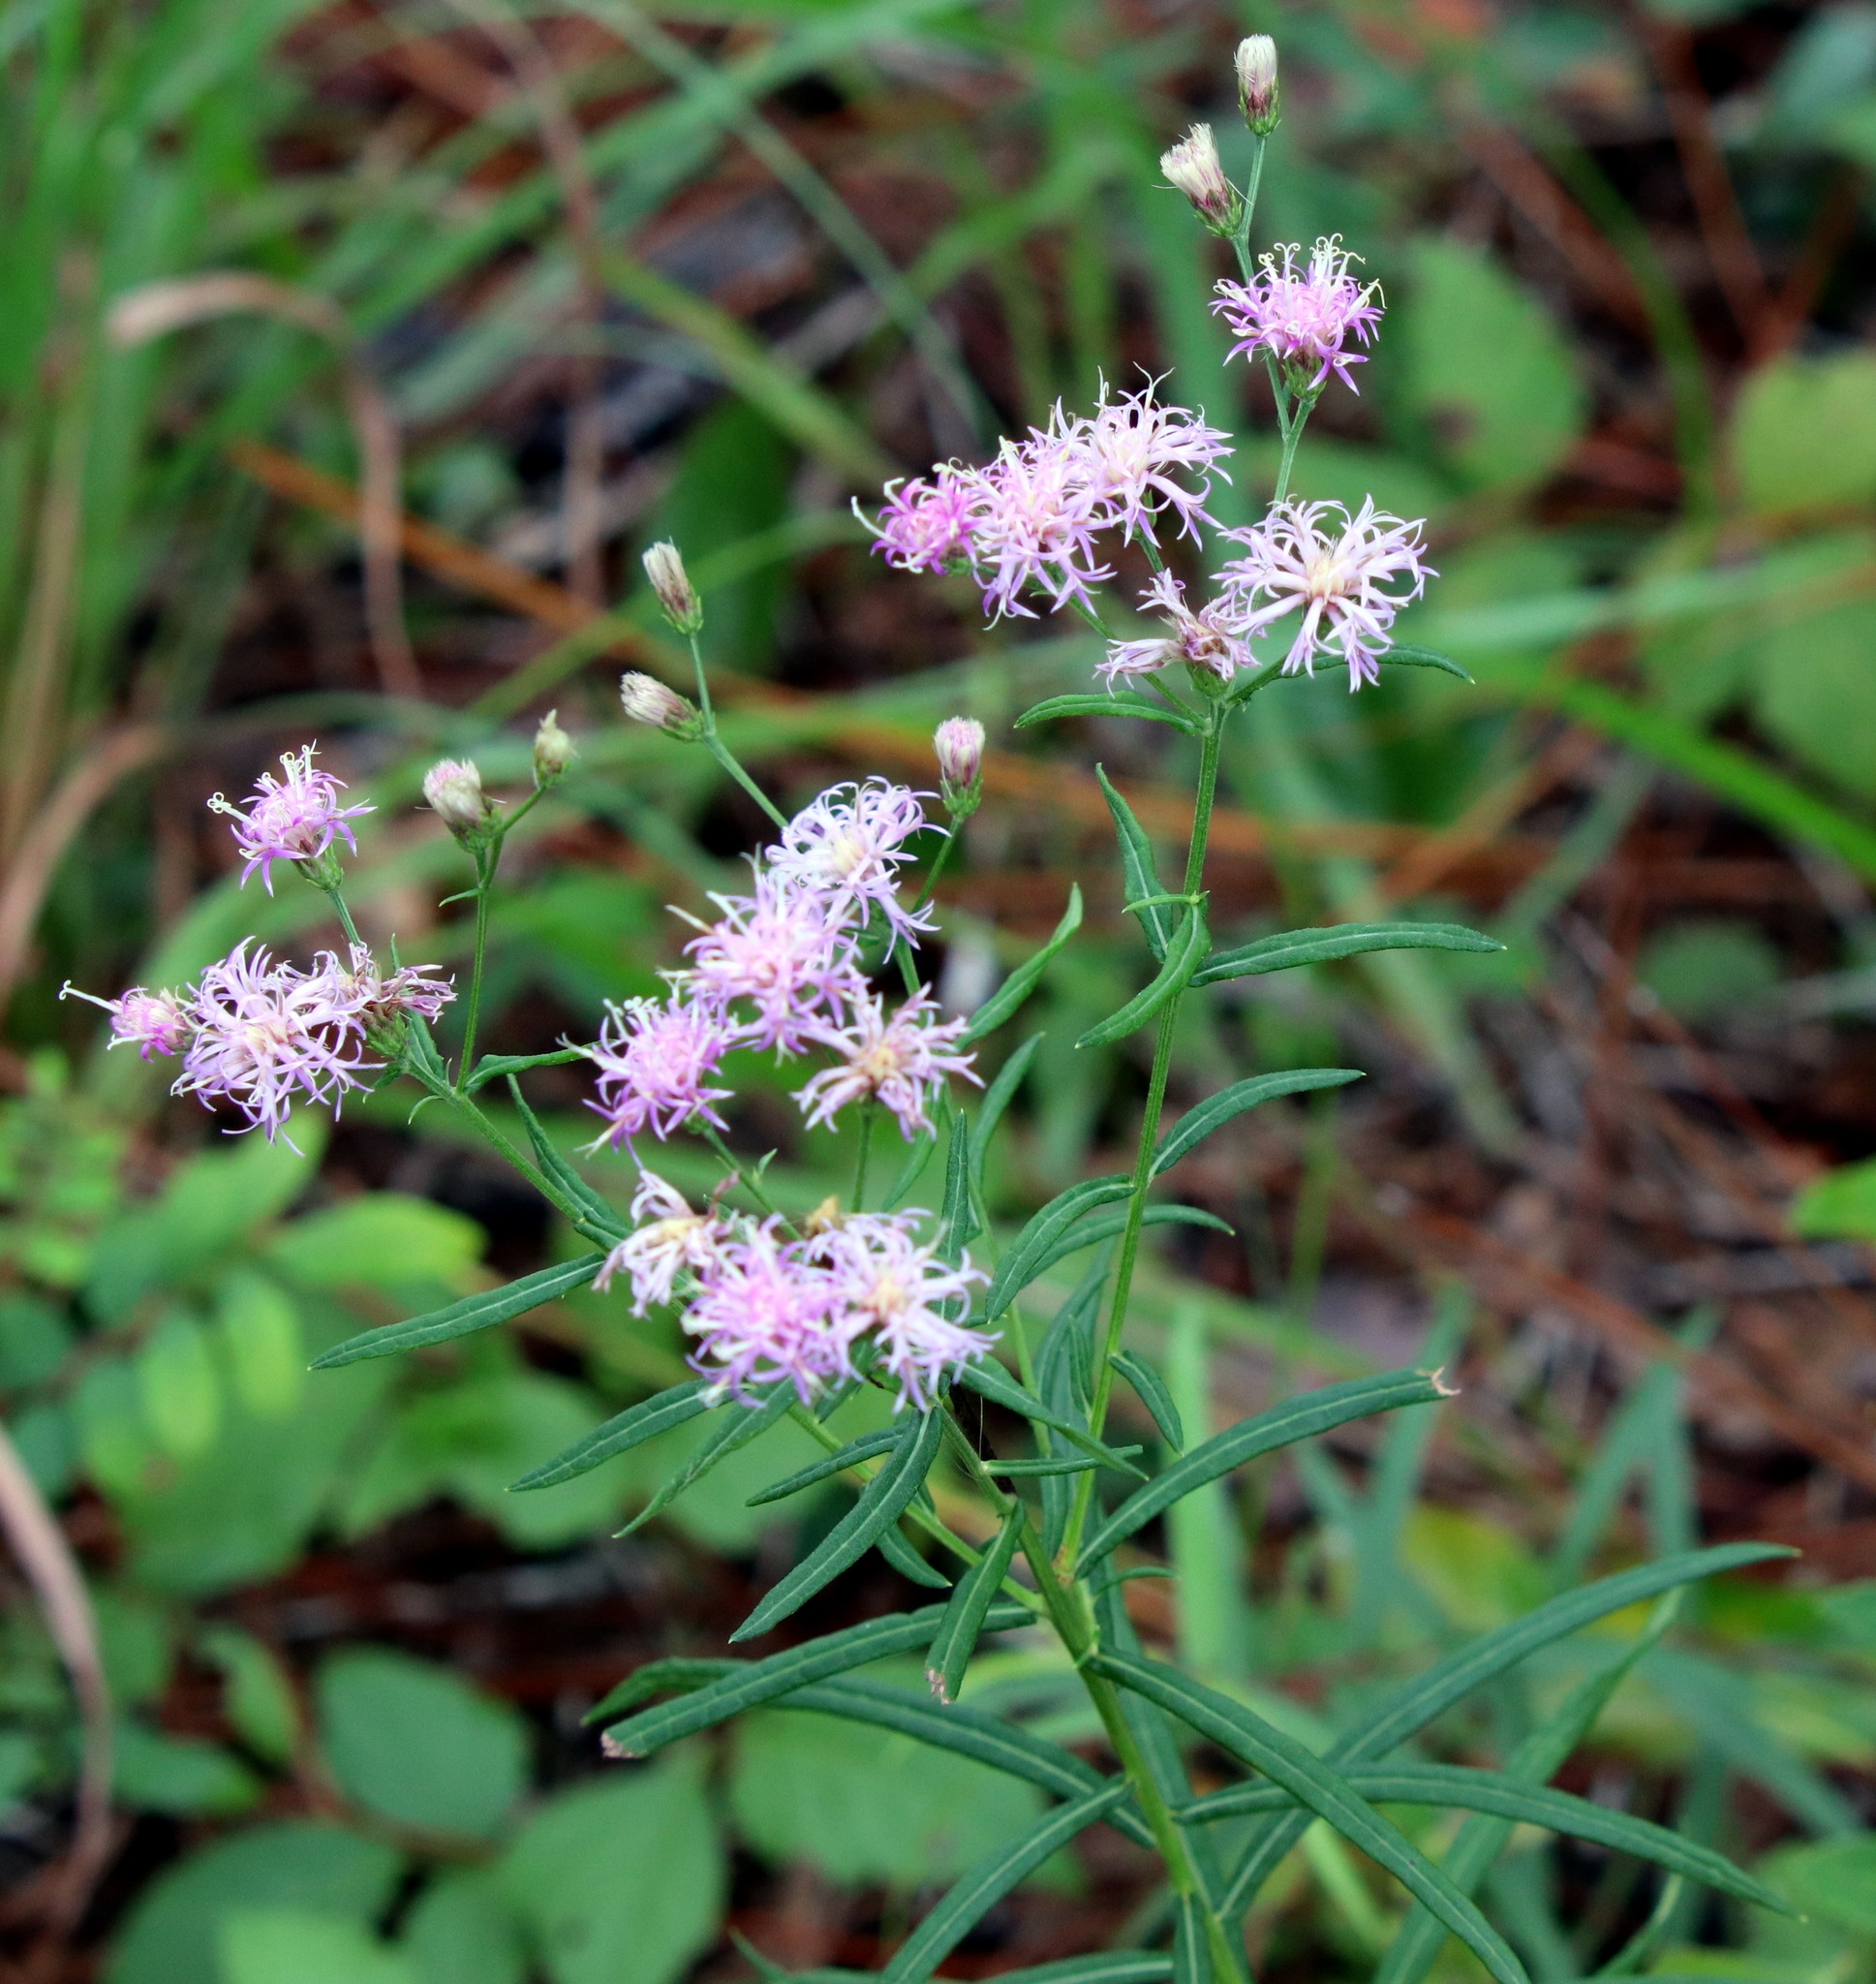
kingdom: Plantae
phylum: Tracheophyta
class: Magnoliopsida
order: Asterales
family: Asteraceae
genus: Vernonia
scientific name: Vernonia angustifolia
